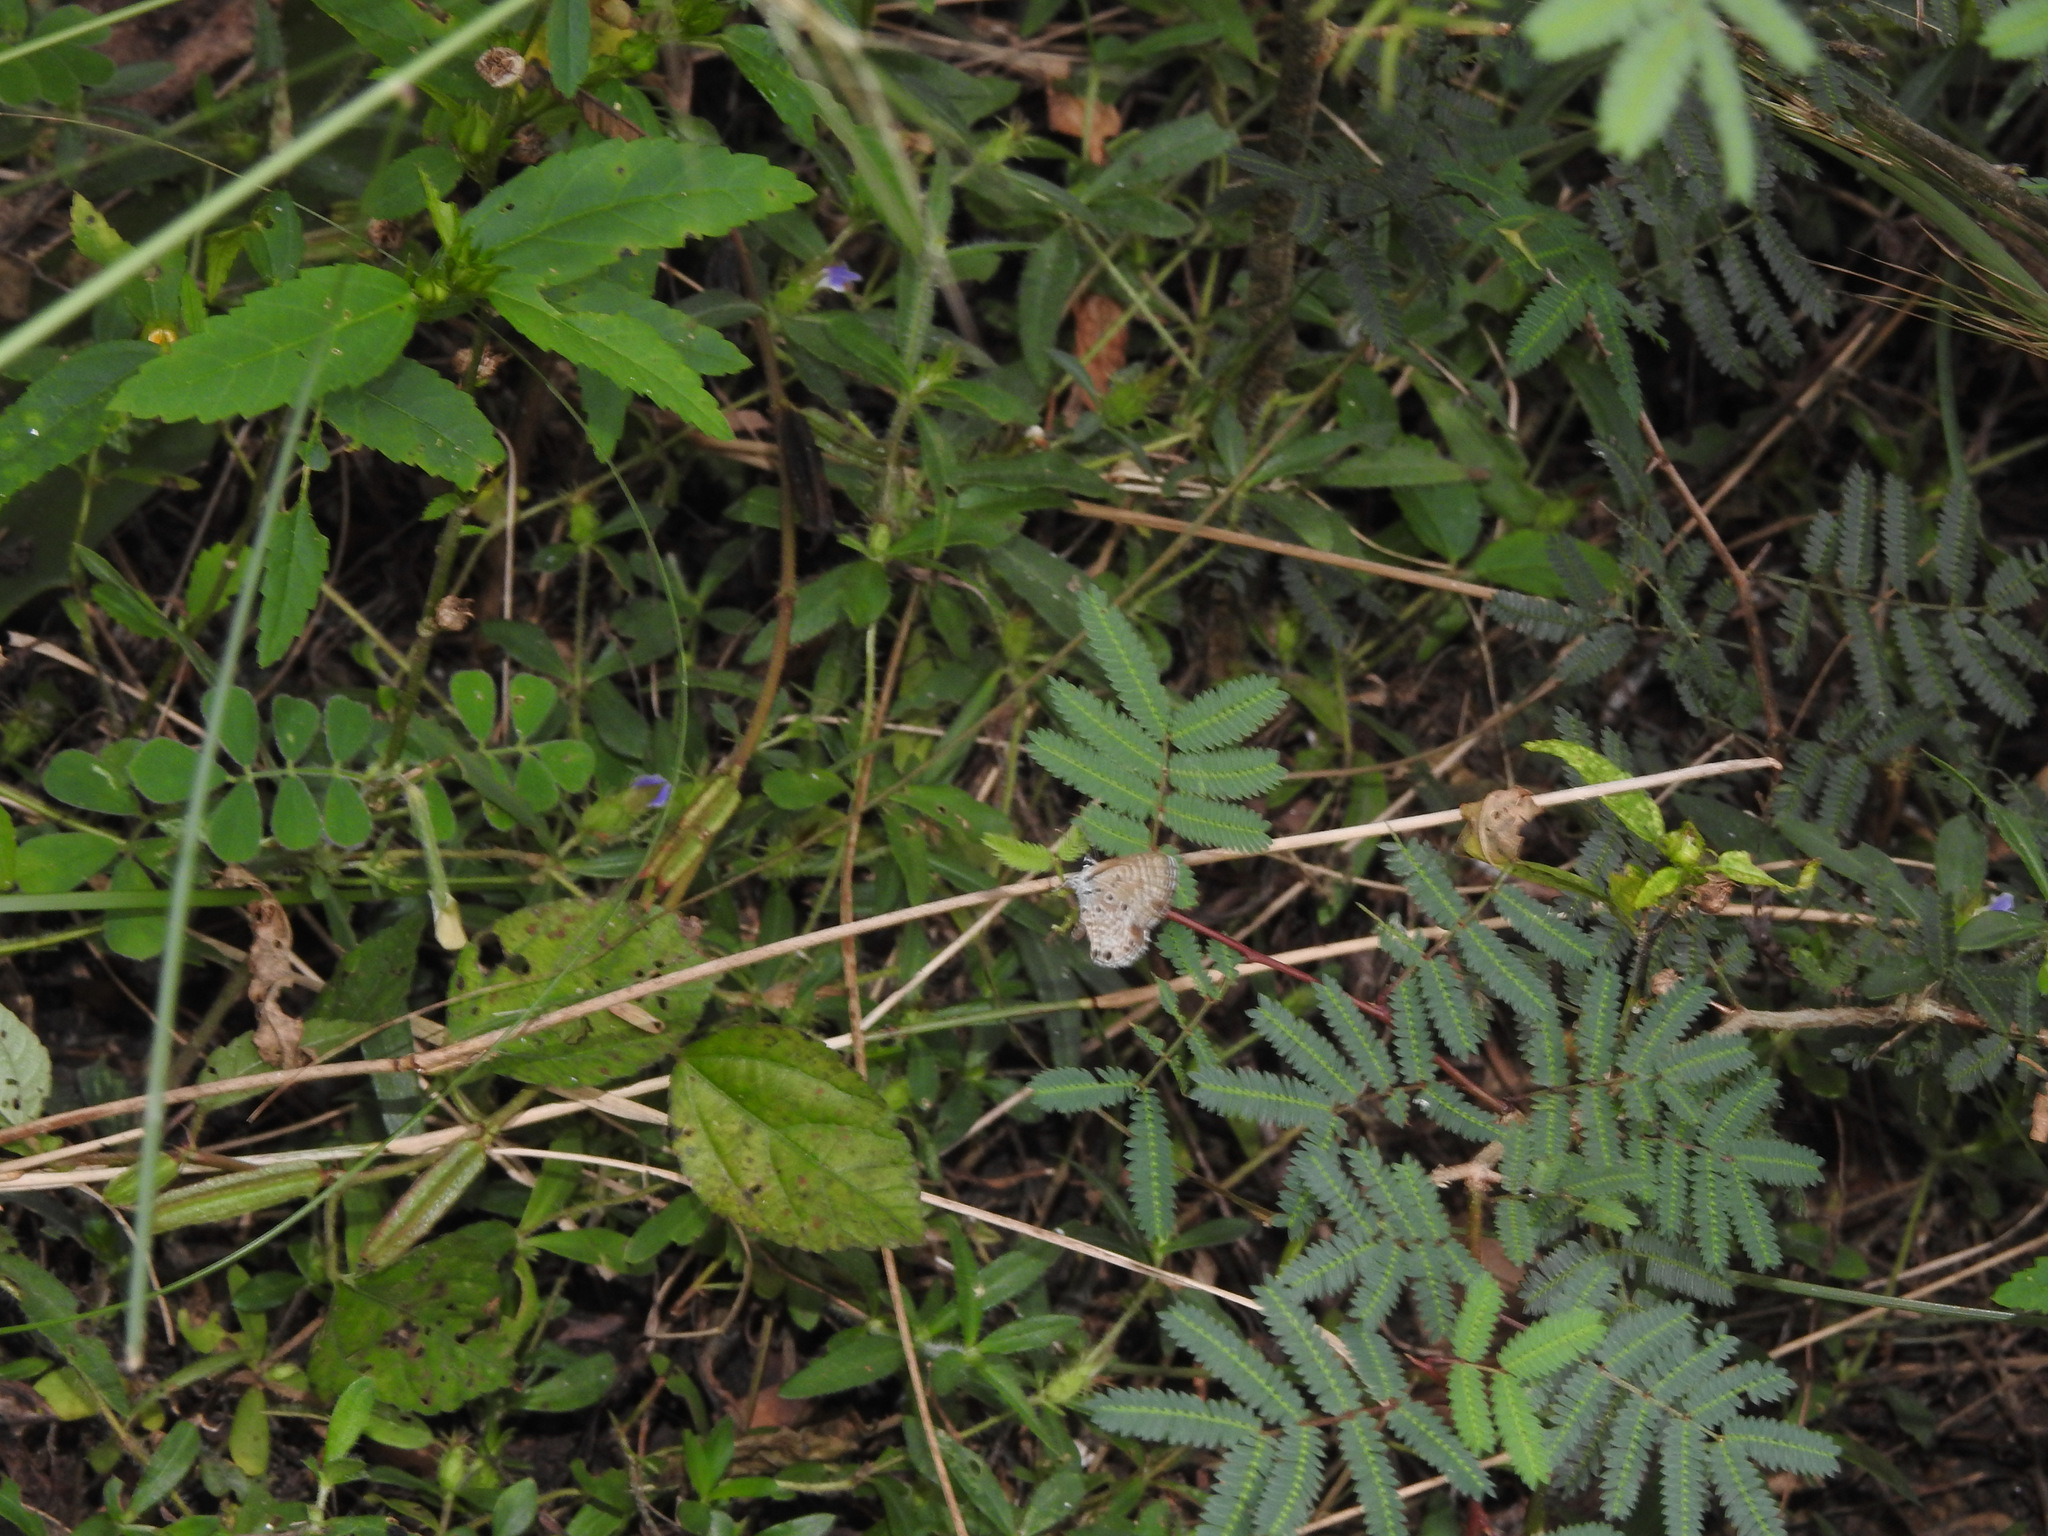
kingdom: Animalia
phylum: Arthropoda
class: Insecta
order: Lepidoptera
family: Lycaenidae
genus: Azanus
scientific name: Azanus jesous
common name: African babul blue
